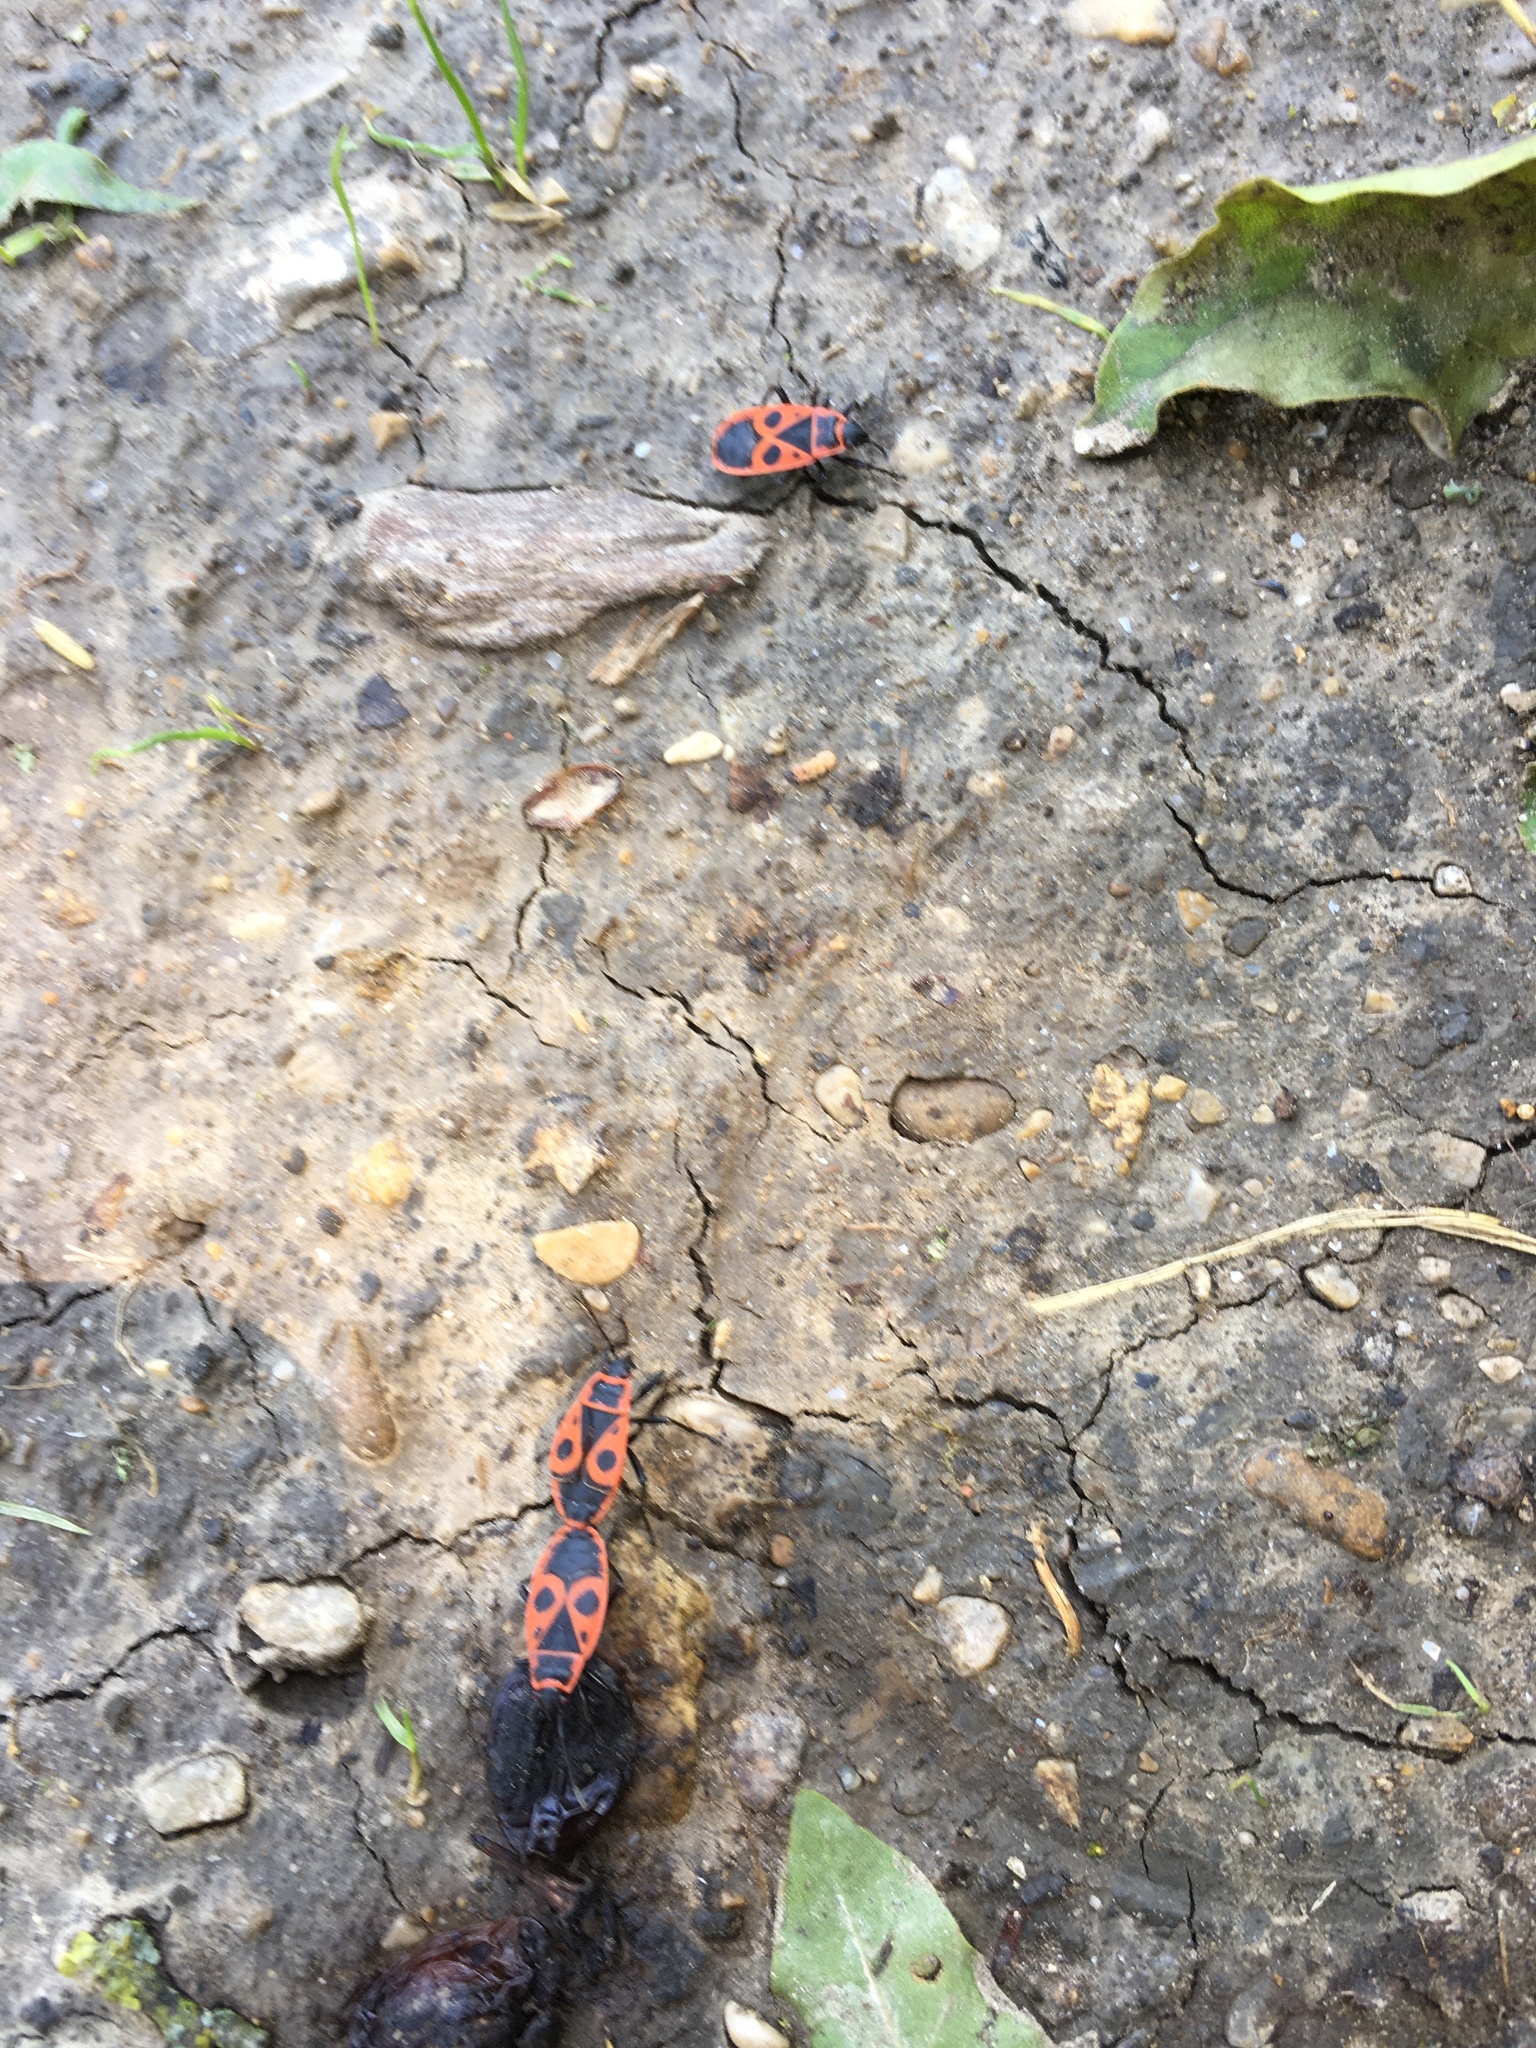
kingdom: Animalia
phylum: Arthropoda
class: Insecta
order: Hemiptera
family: Pyrrhocoridae
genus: Pyrrhocoris
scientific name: Pyrrhocoris apterus
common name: Firebug
